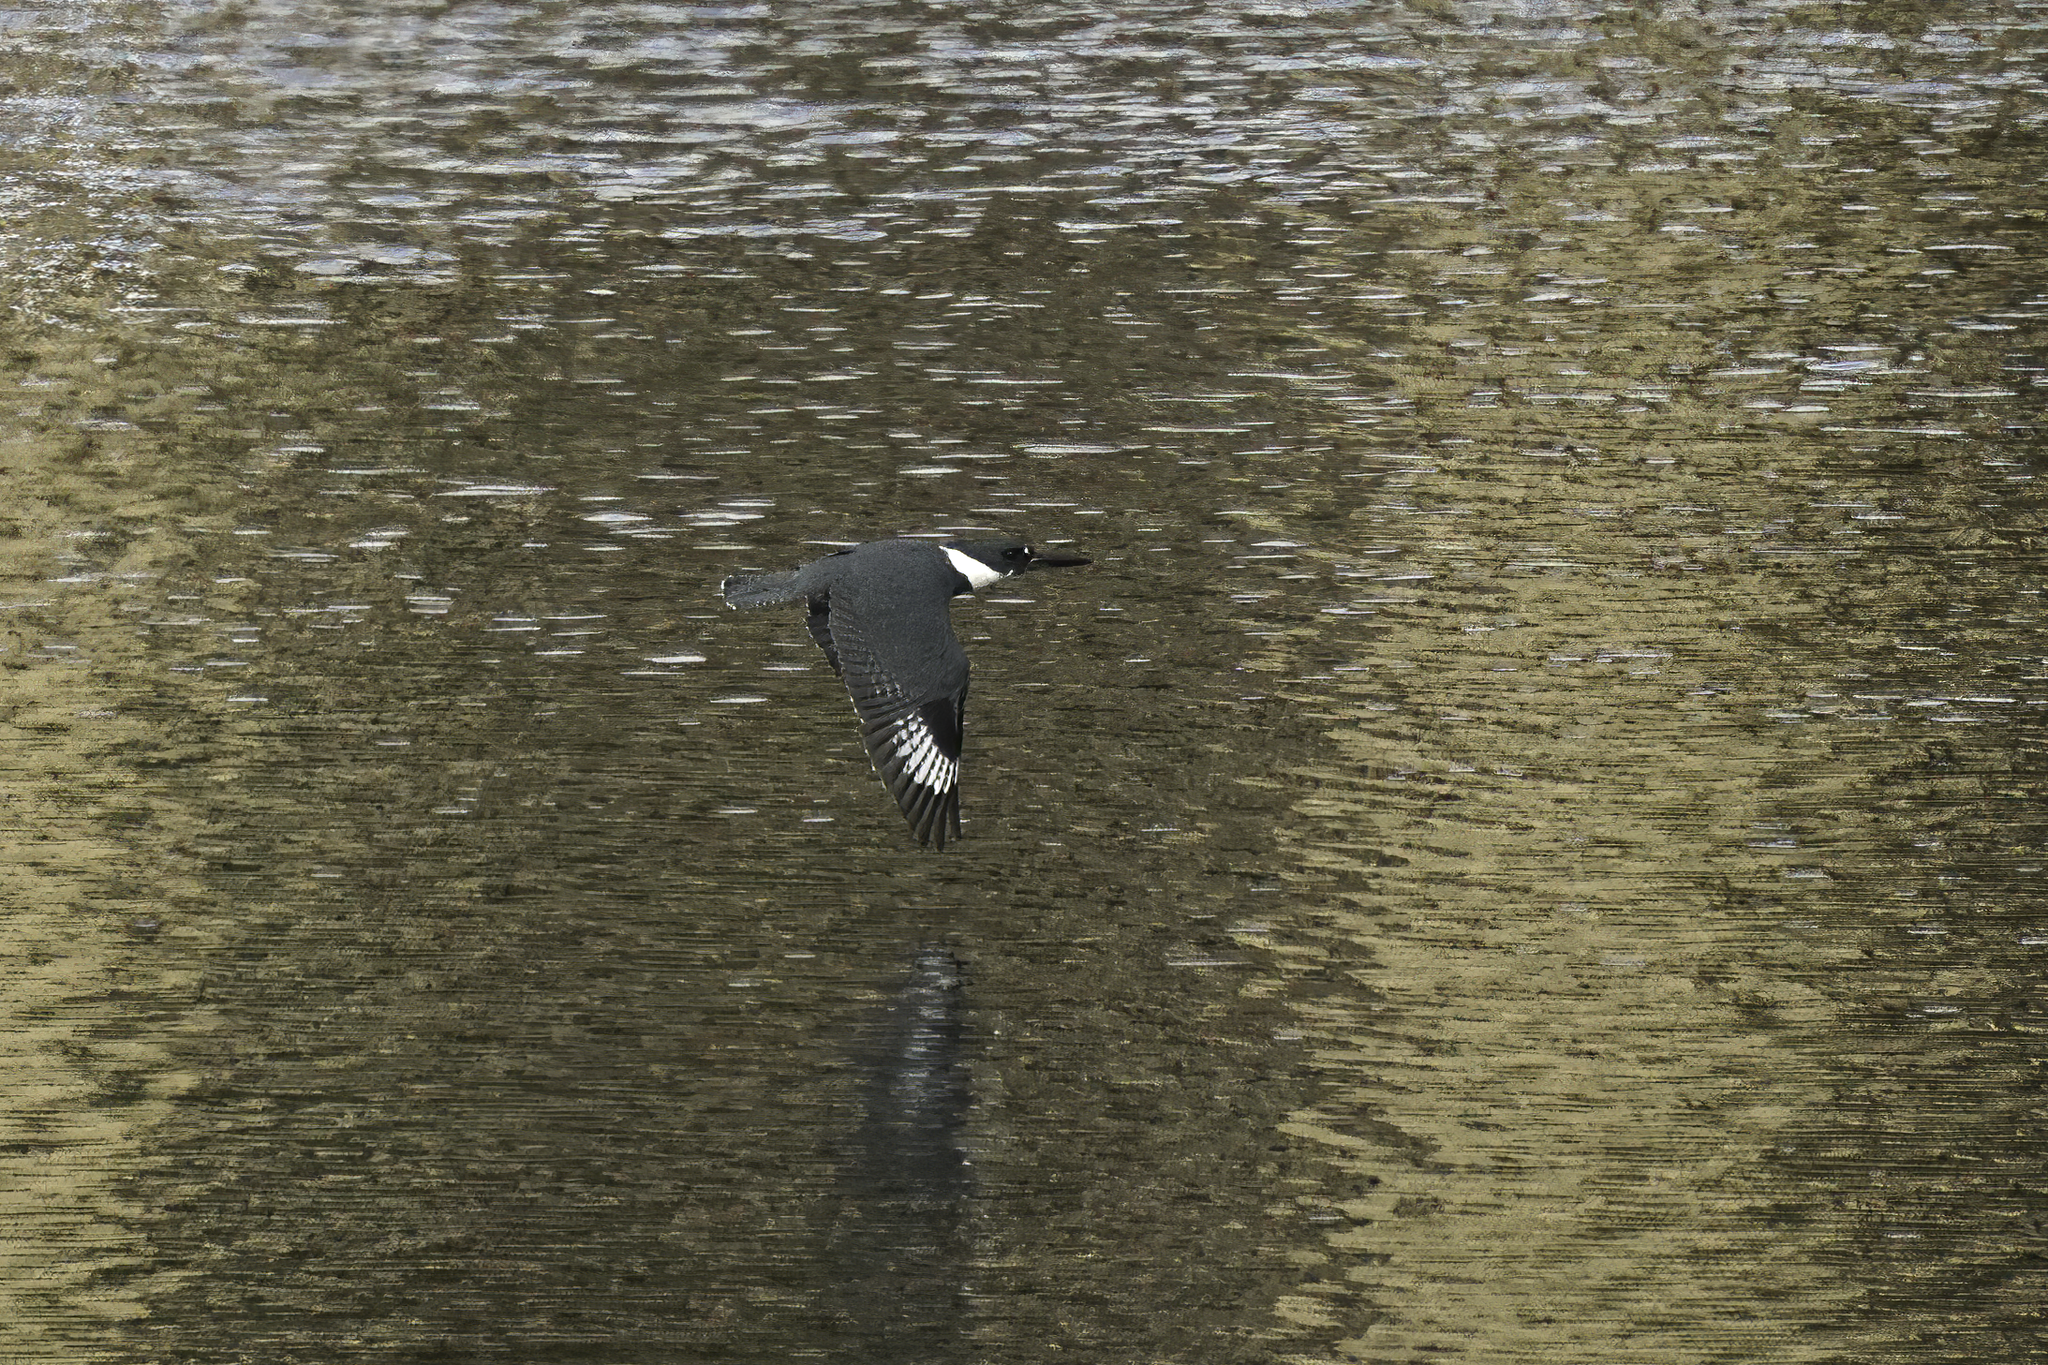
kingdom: Animalia
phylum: Chordata
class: Aves
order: Coraciiformes
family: Alcedinidae
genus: Megaceryle
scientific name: Megaceryle alcyon
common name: Belted kingfisher
